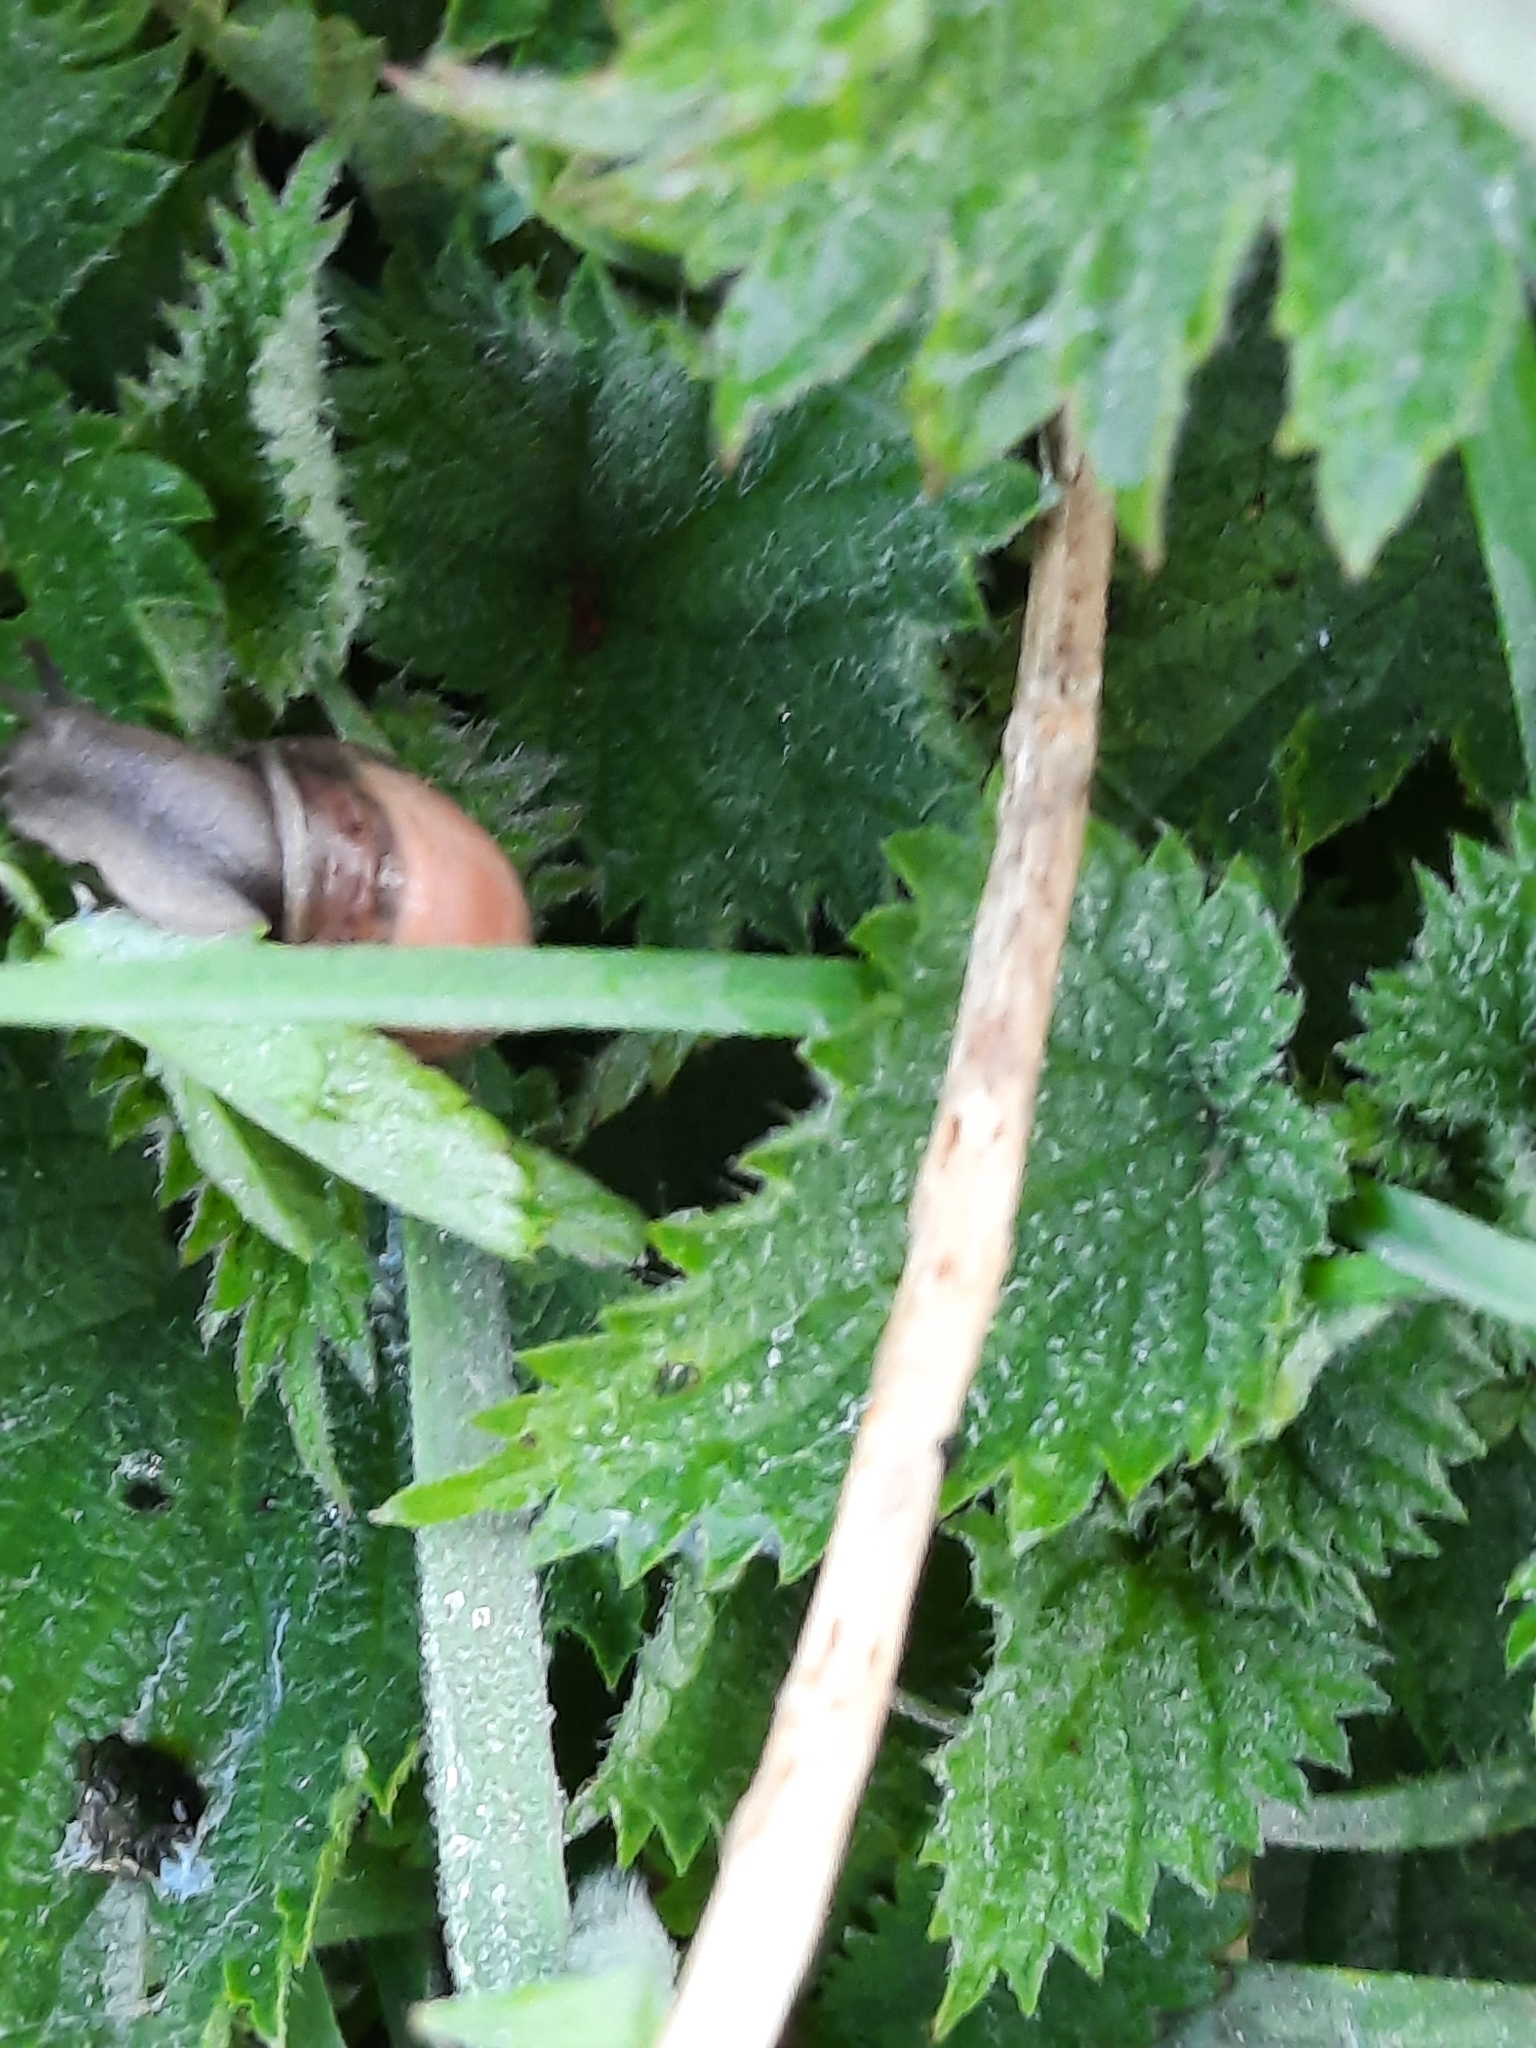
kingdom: Animalia
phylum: Mollusca
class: Gastropoda
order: Stylommatophora
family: Hygromiidae
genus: Monacha
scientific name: Monacha cantiana
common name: Kentish snail
